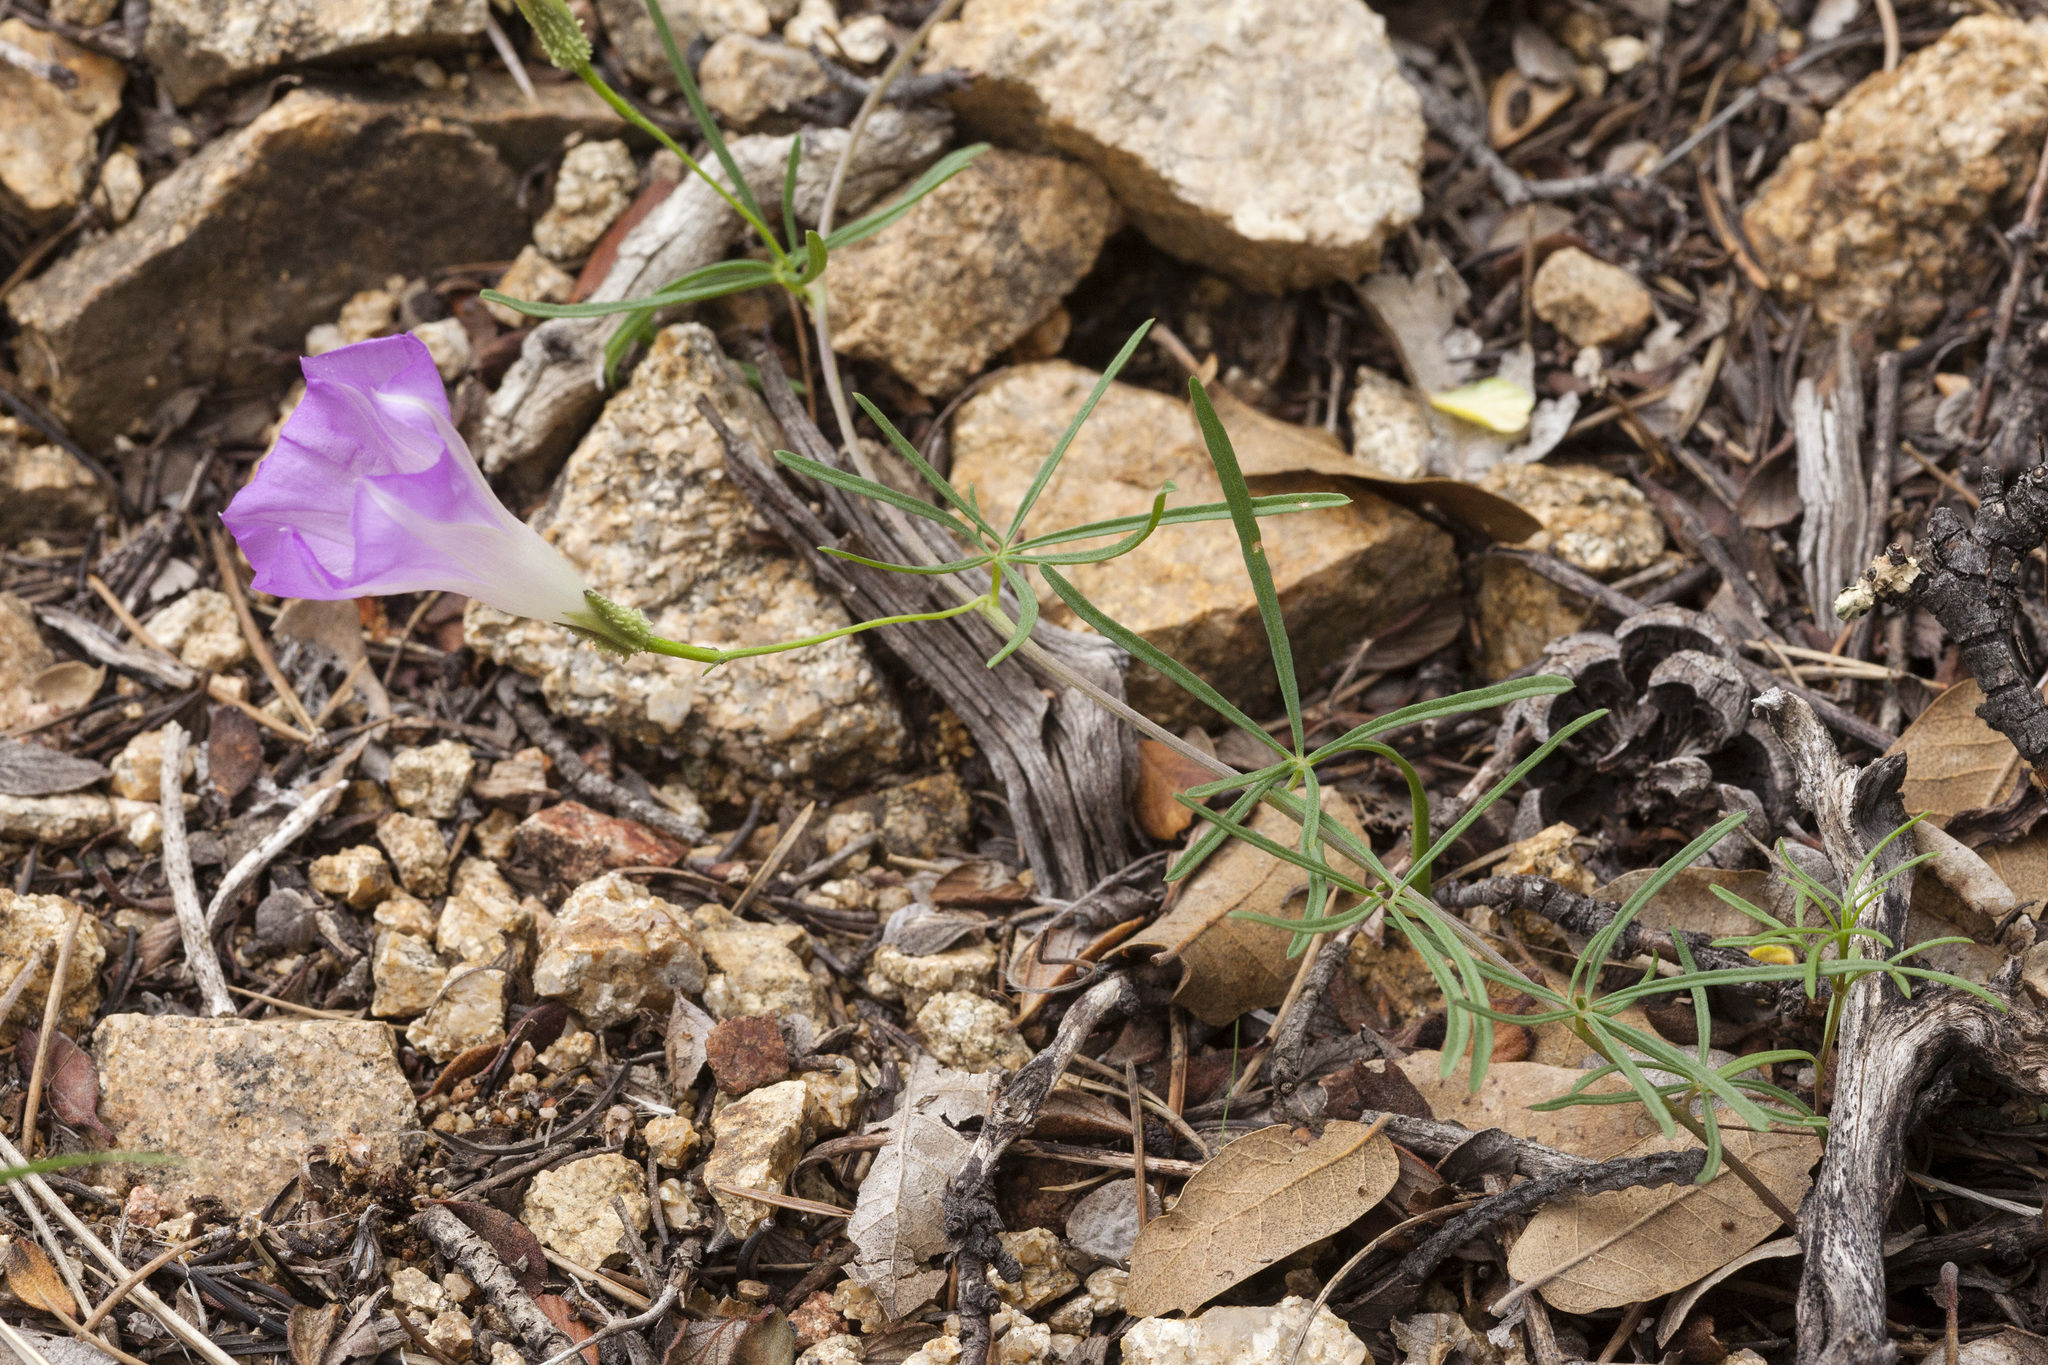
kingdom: Plantae
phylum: Tracheophyta
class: Magnoliopsida
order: Solanales
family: Convolvulaceae
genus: Ipomoea
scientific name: Ipomoea plummerae
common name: Plummer's morning-glory
